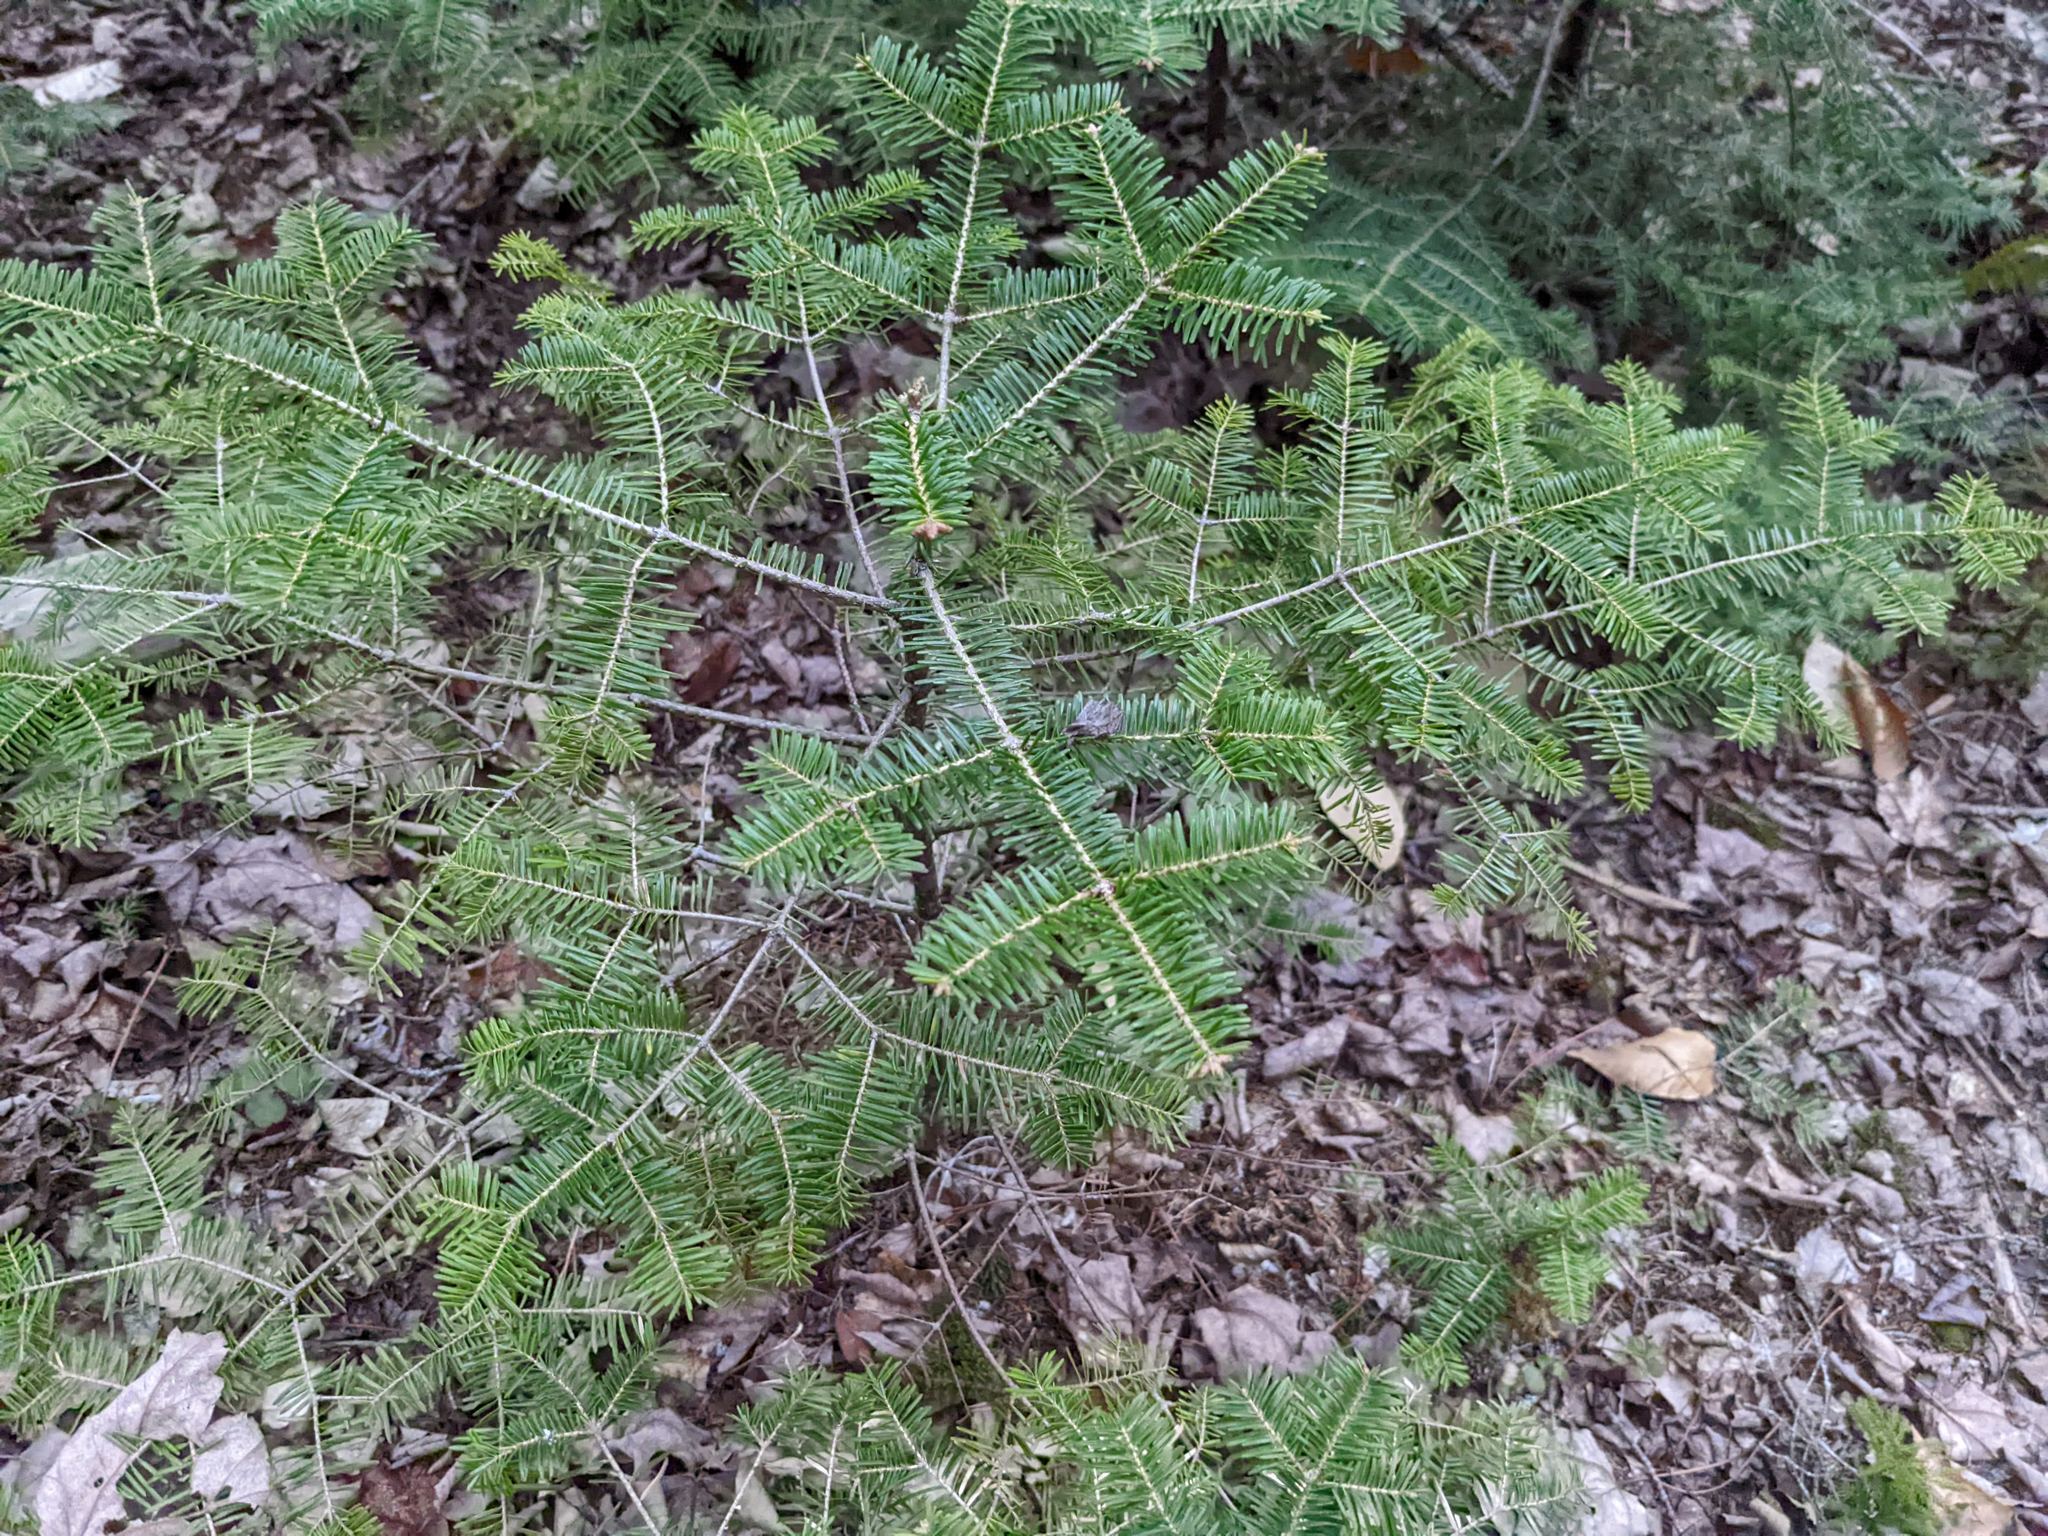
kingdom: Plantae
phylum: Tracheophyta
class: Pinopsida
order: Pinales
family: Pinaceae
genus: Abies
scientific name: Abies balsamea
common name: Balsam fir
